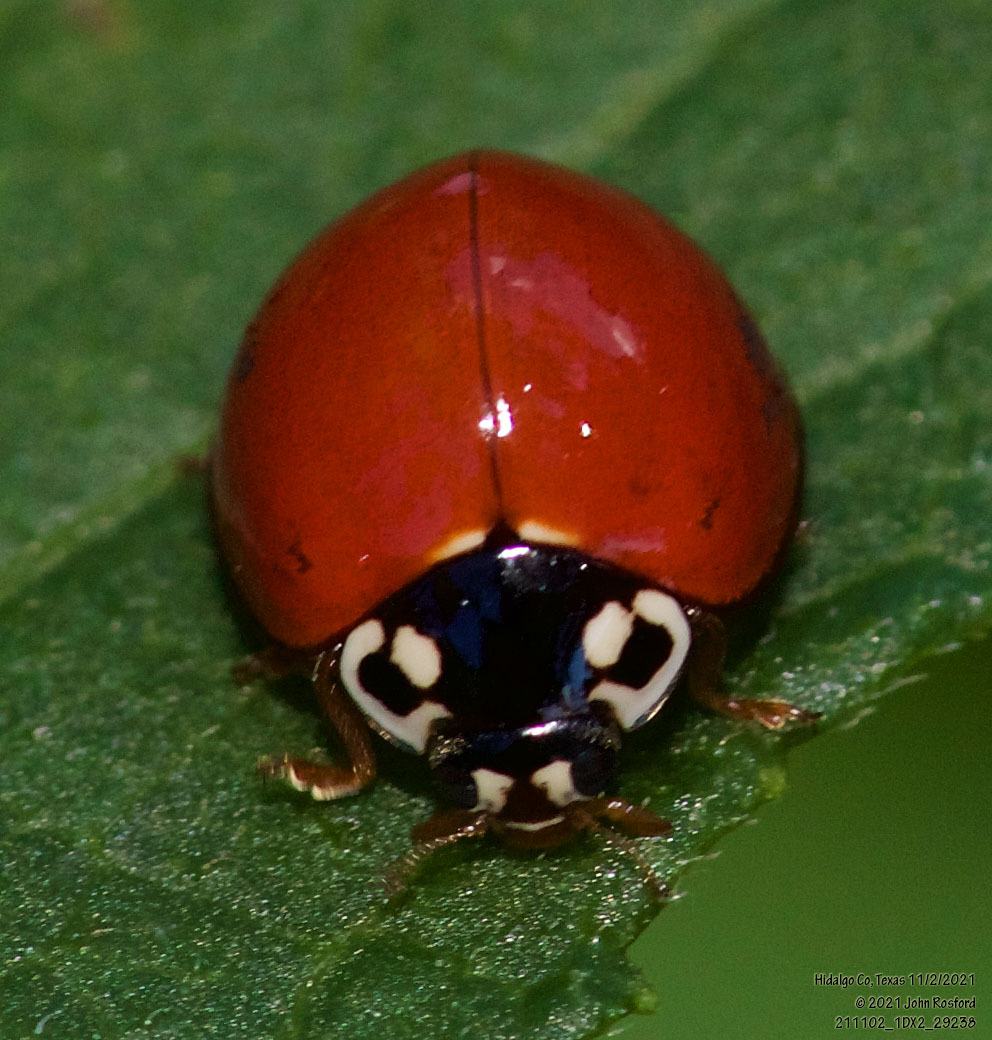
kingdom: Animalia
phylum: Arthropoda
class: Insecta
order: Coleoptera
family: Coccinellidae
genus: Cycloneda
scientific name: Cycloneda sanguinea
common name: Ladybird beetle
